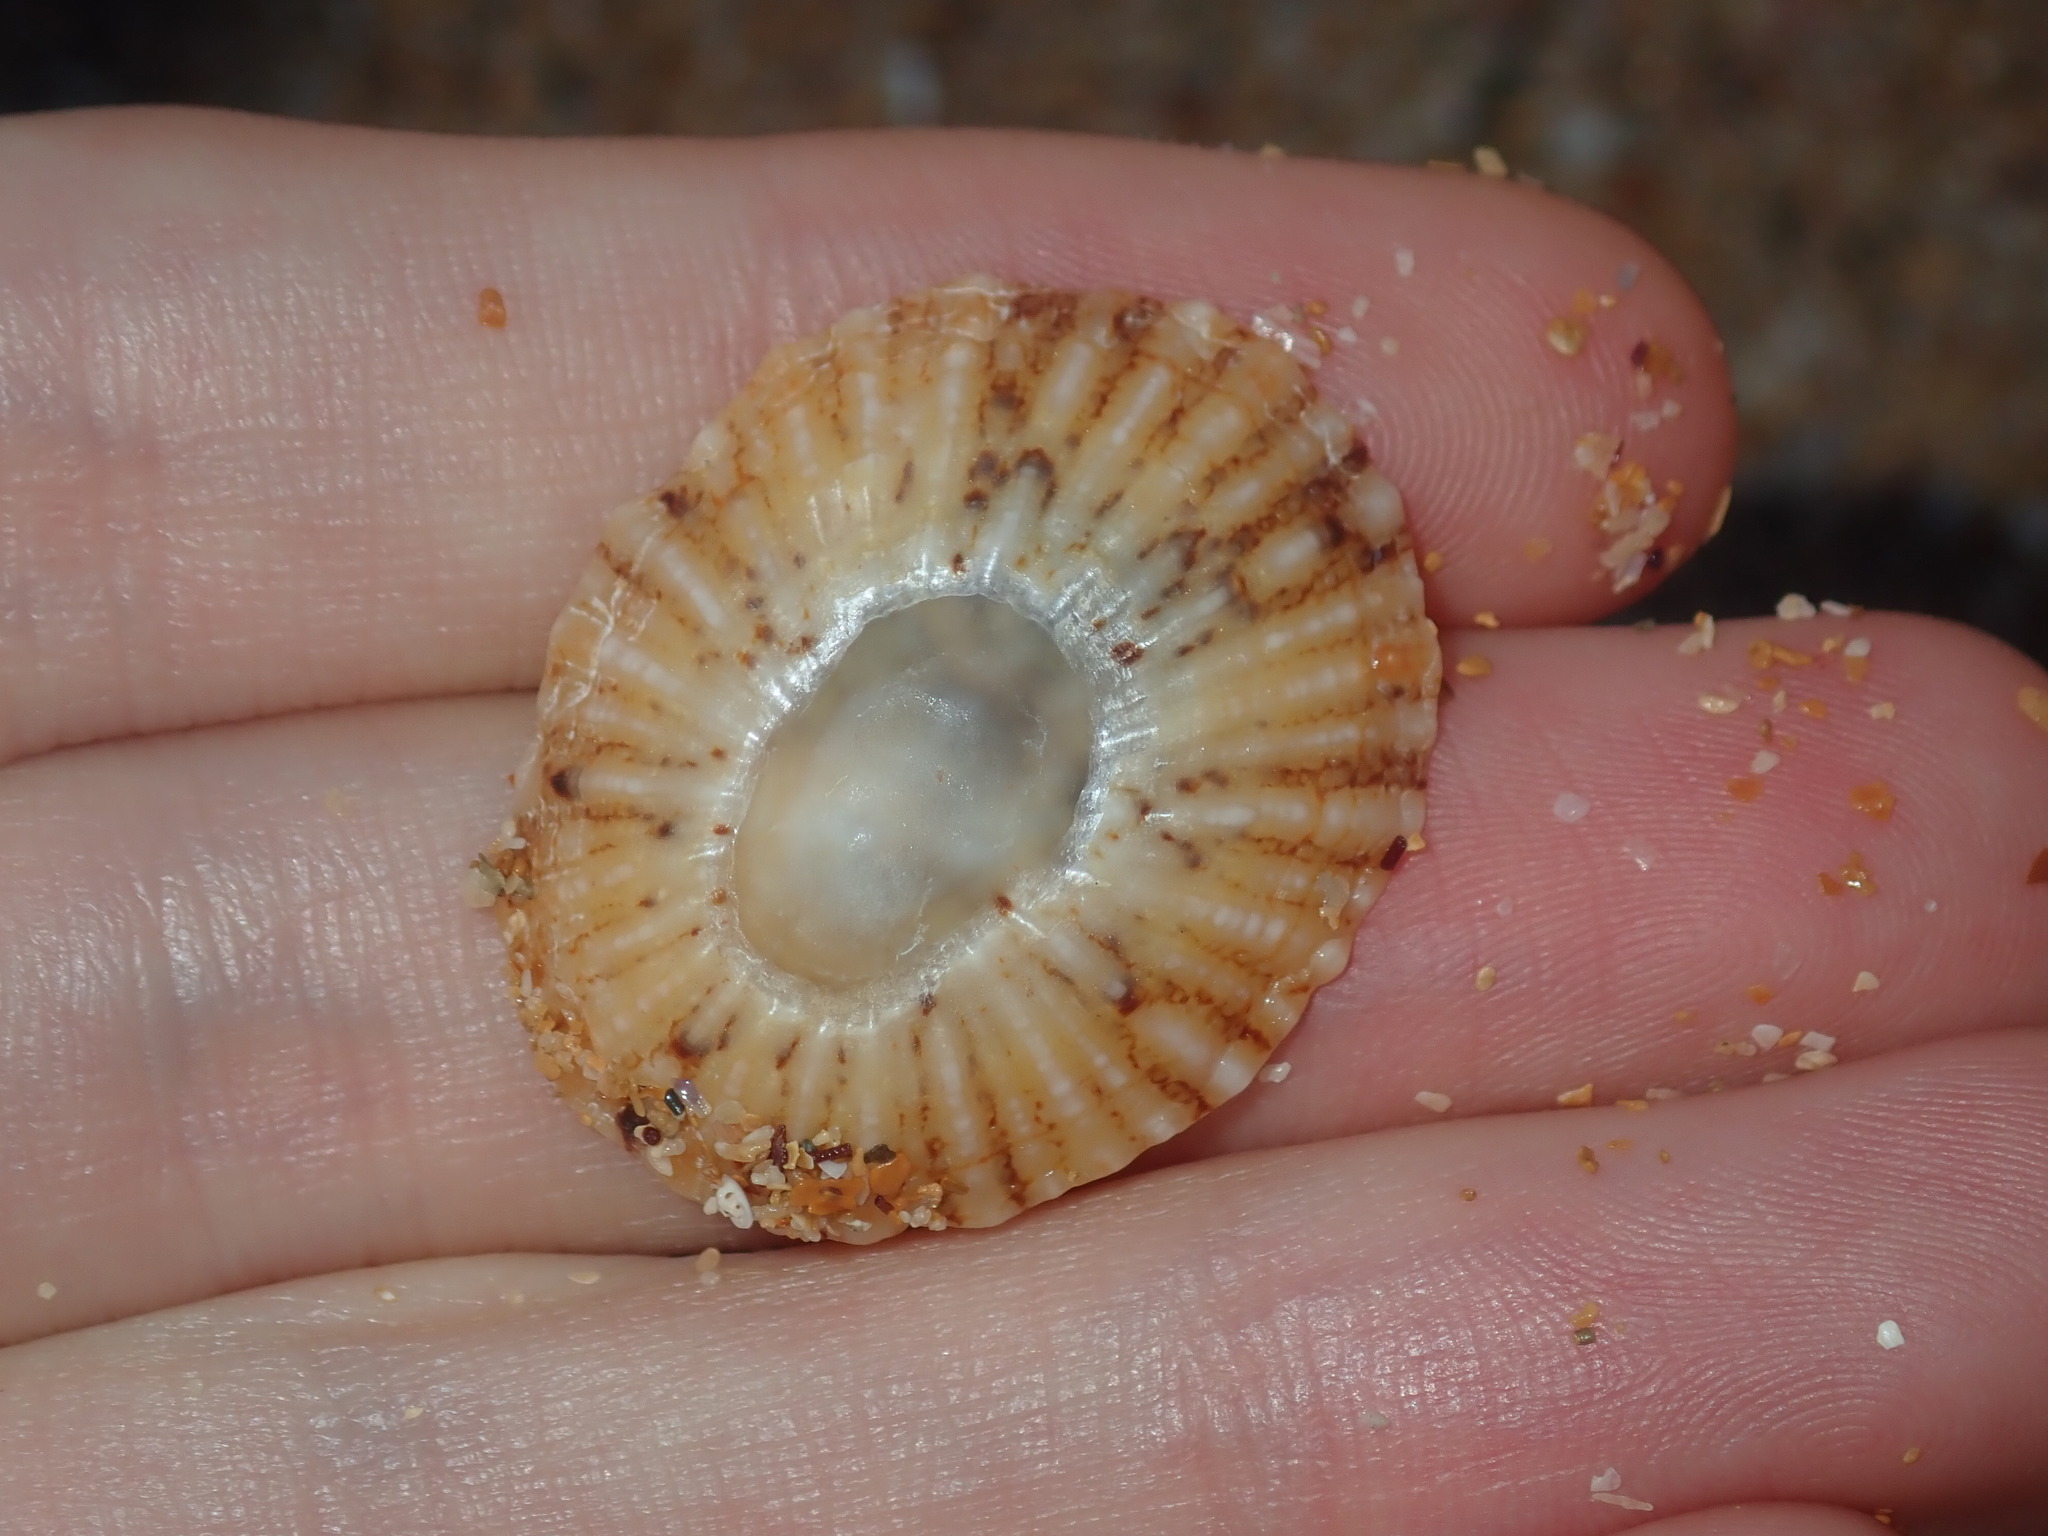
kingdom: Animalia
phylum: Mollusca
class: Gastropoda
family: Nacellidae
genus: Cellana
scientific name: Cellana tramoserica
